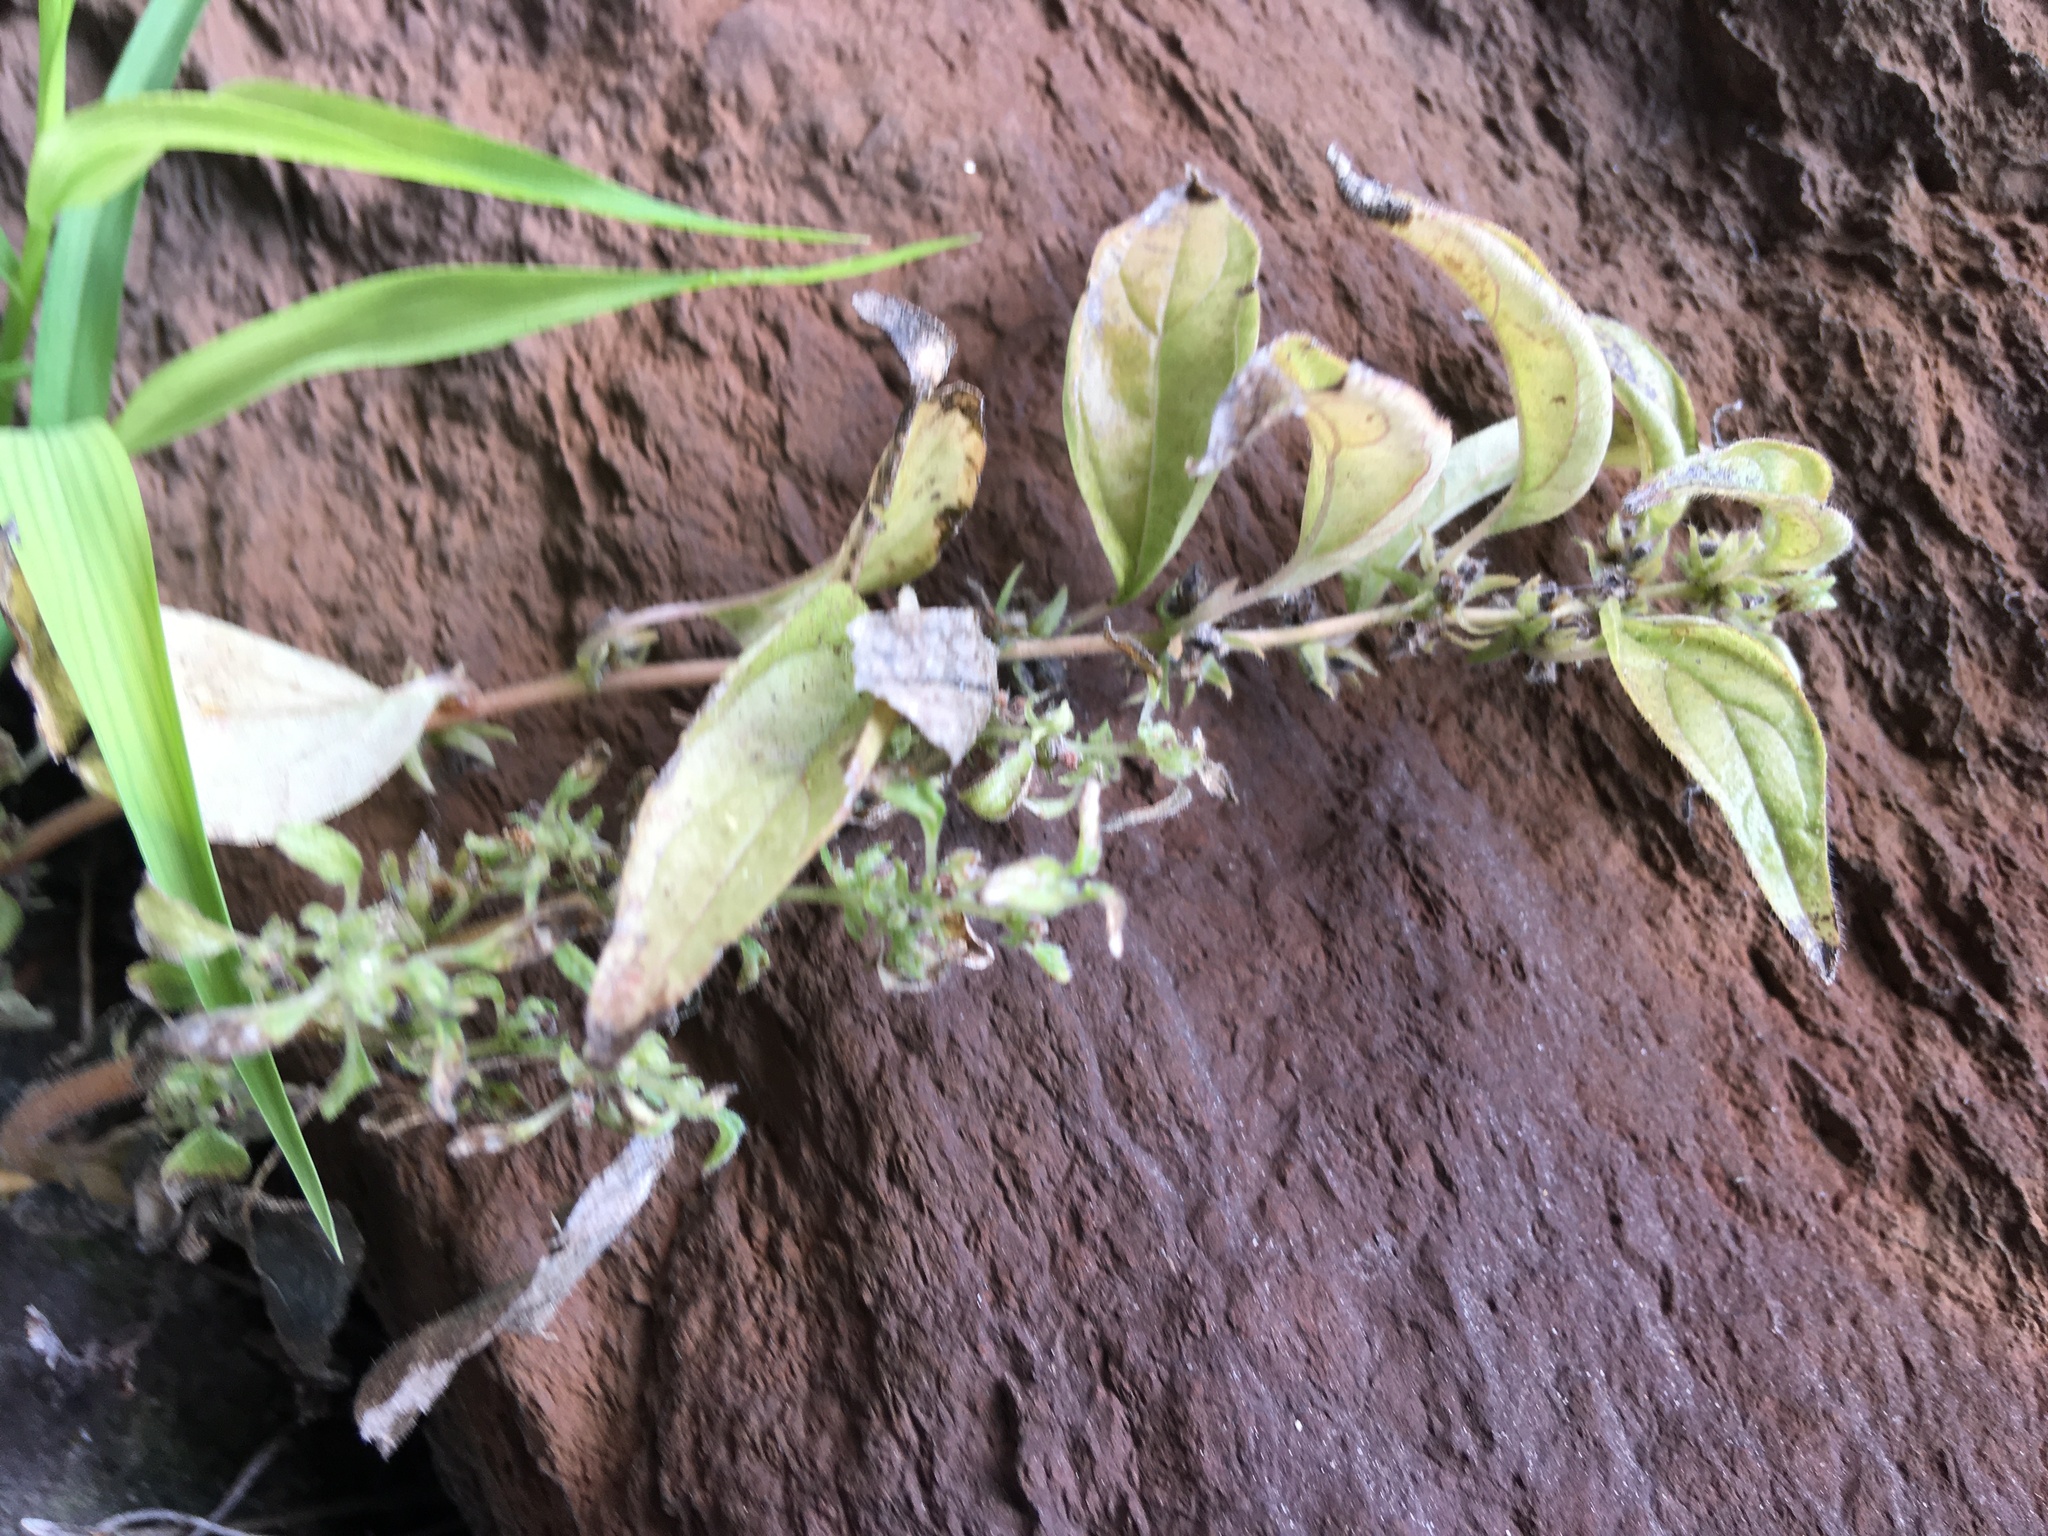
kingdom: Plantae
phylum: Tracheophyta
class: Magnoliopsida
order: Rosales
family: Urticaceae
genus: Parietaria
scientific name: Parietaria pensylvanica
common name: Pennsylvania pellitory
